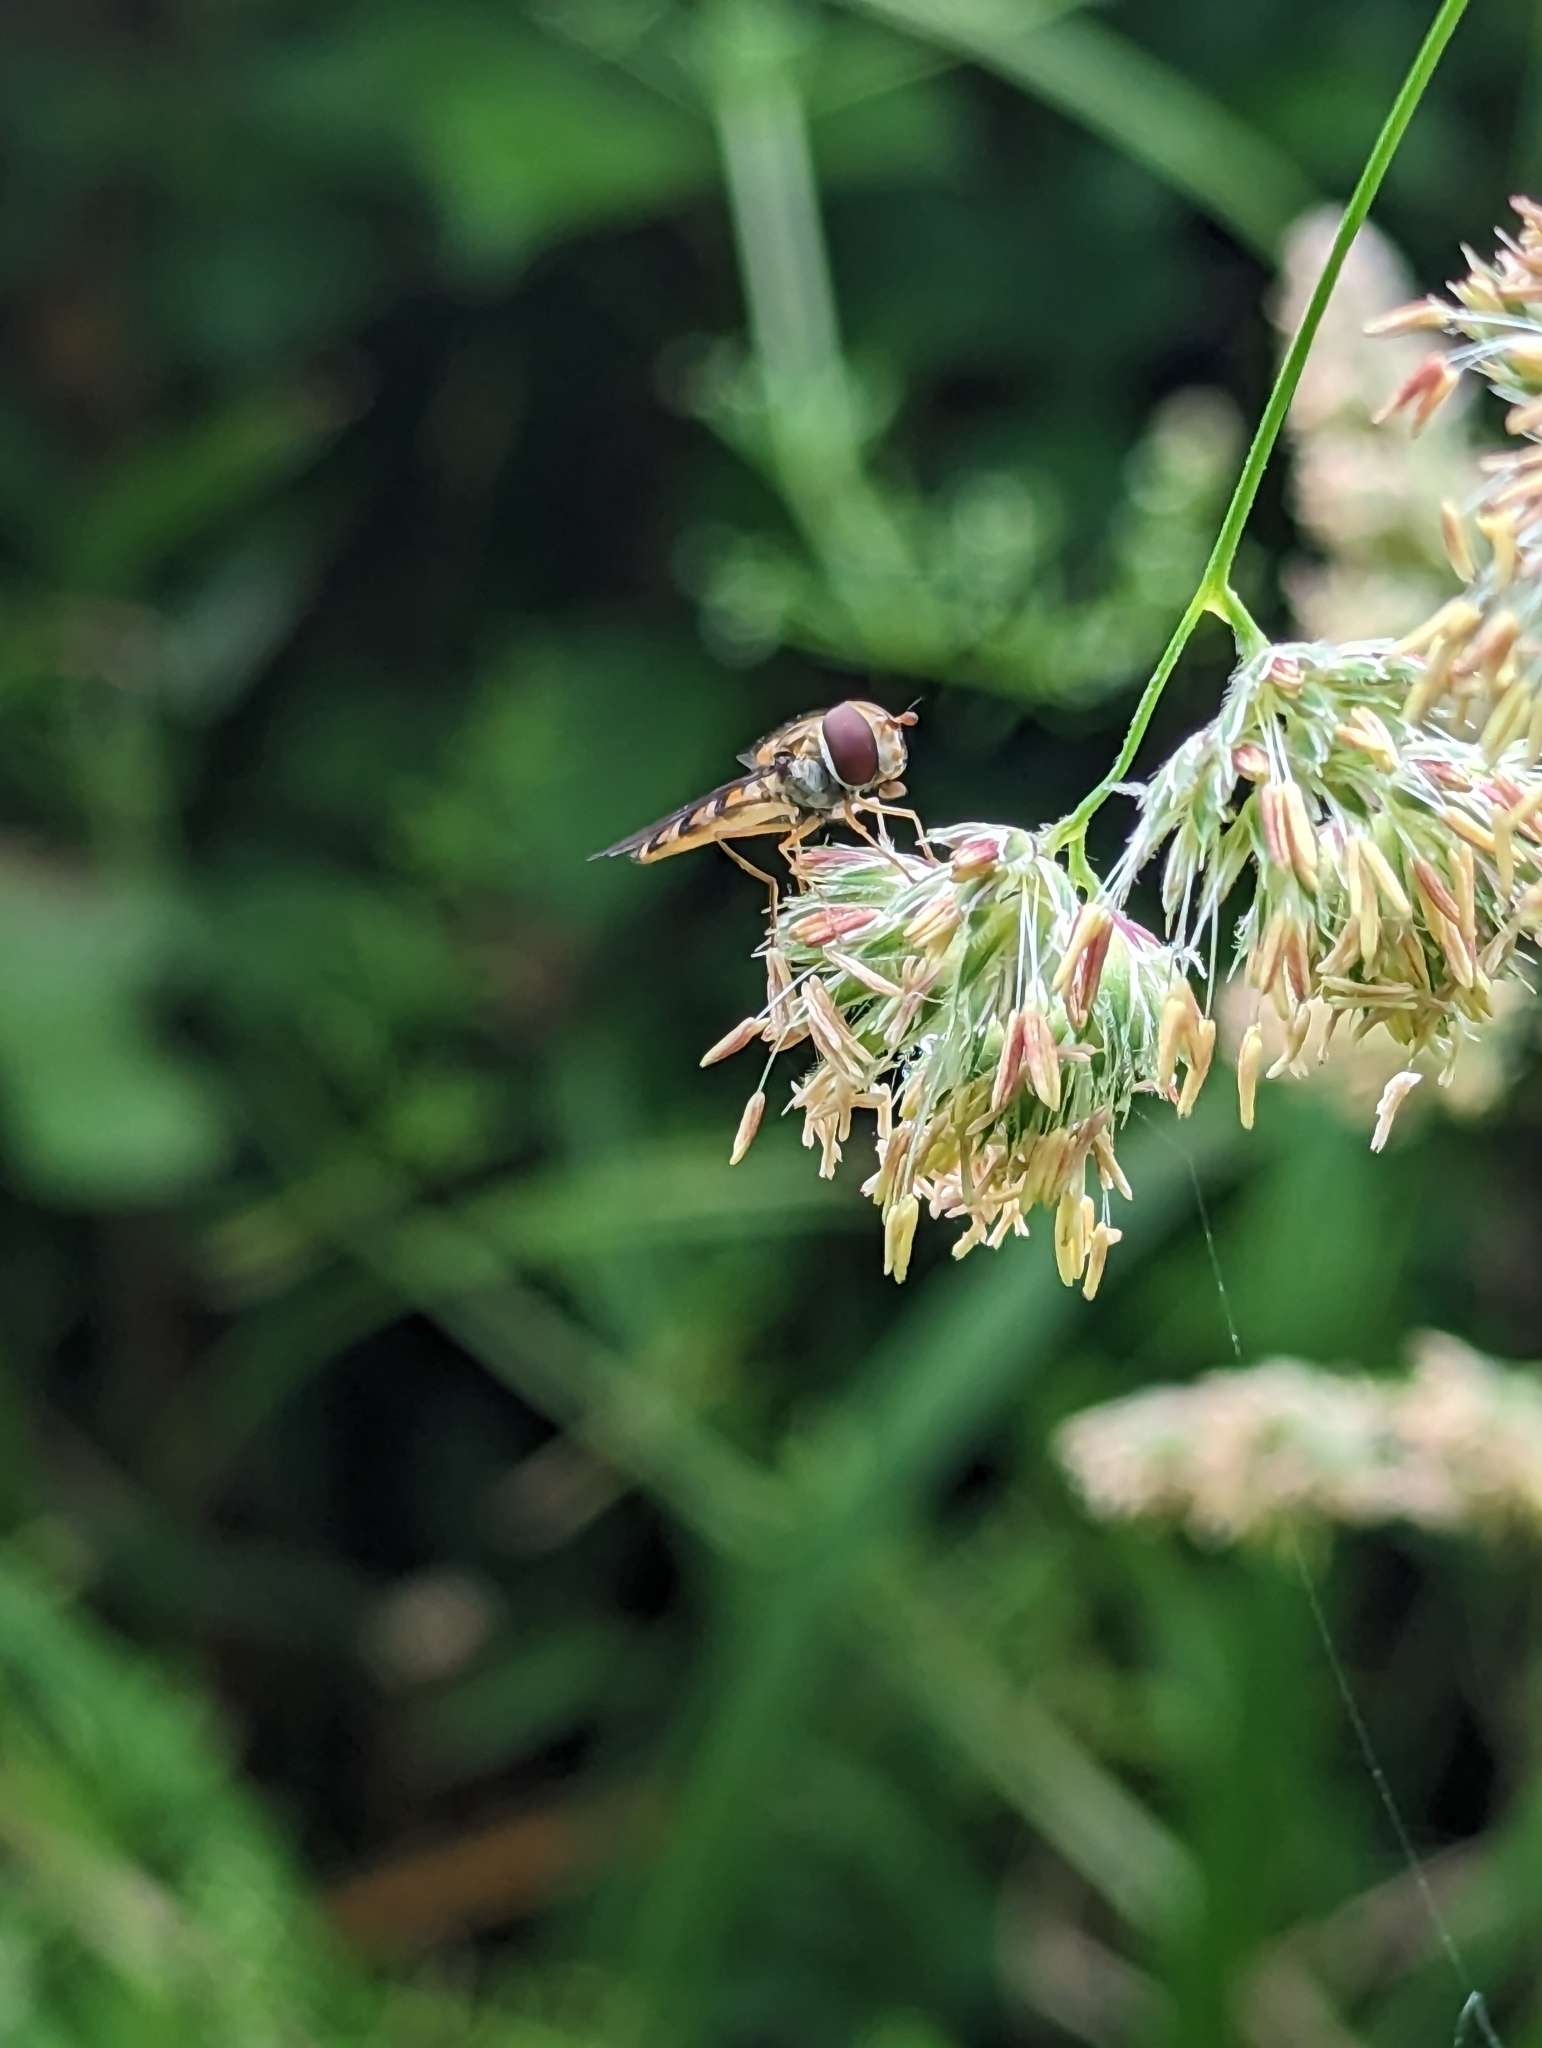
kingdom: Animalia
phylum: Arthropoda
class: Insecta
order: Diptera
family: Syrphidae
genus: Episyrphus
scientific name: Episyrphus balteatus
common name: Marmalade hoverfly
